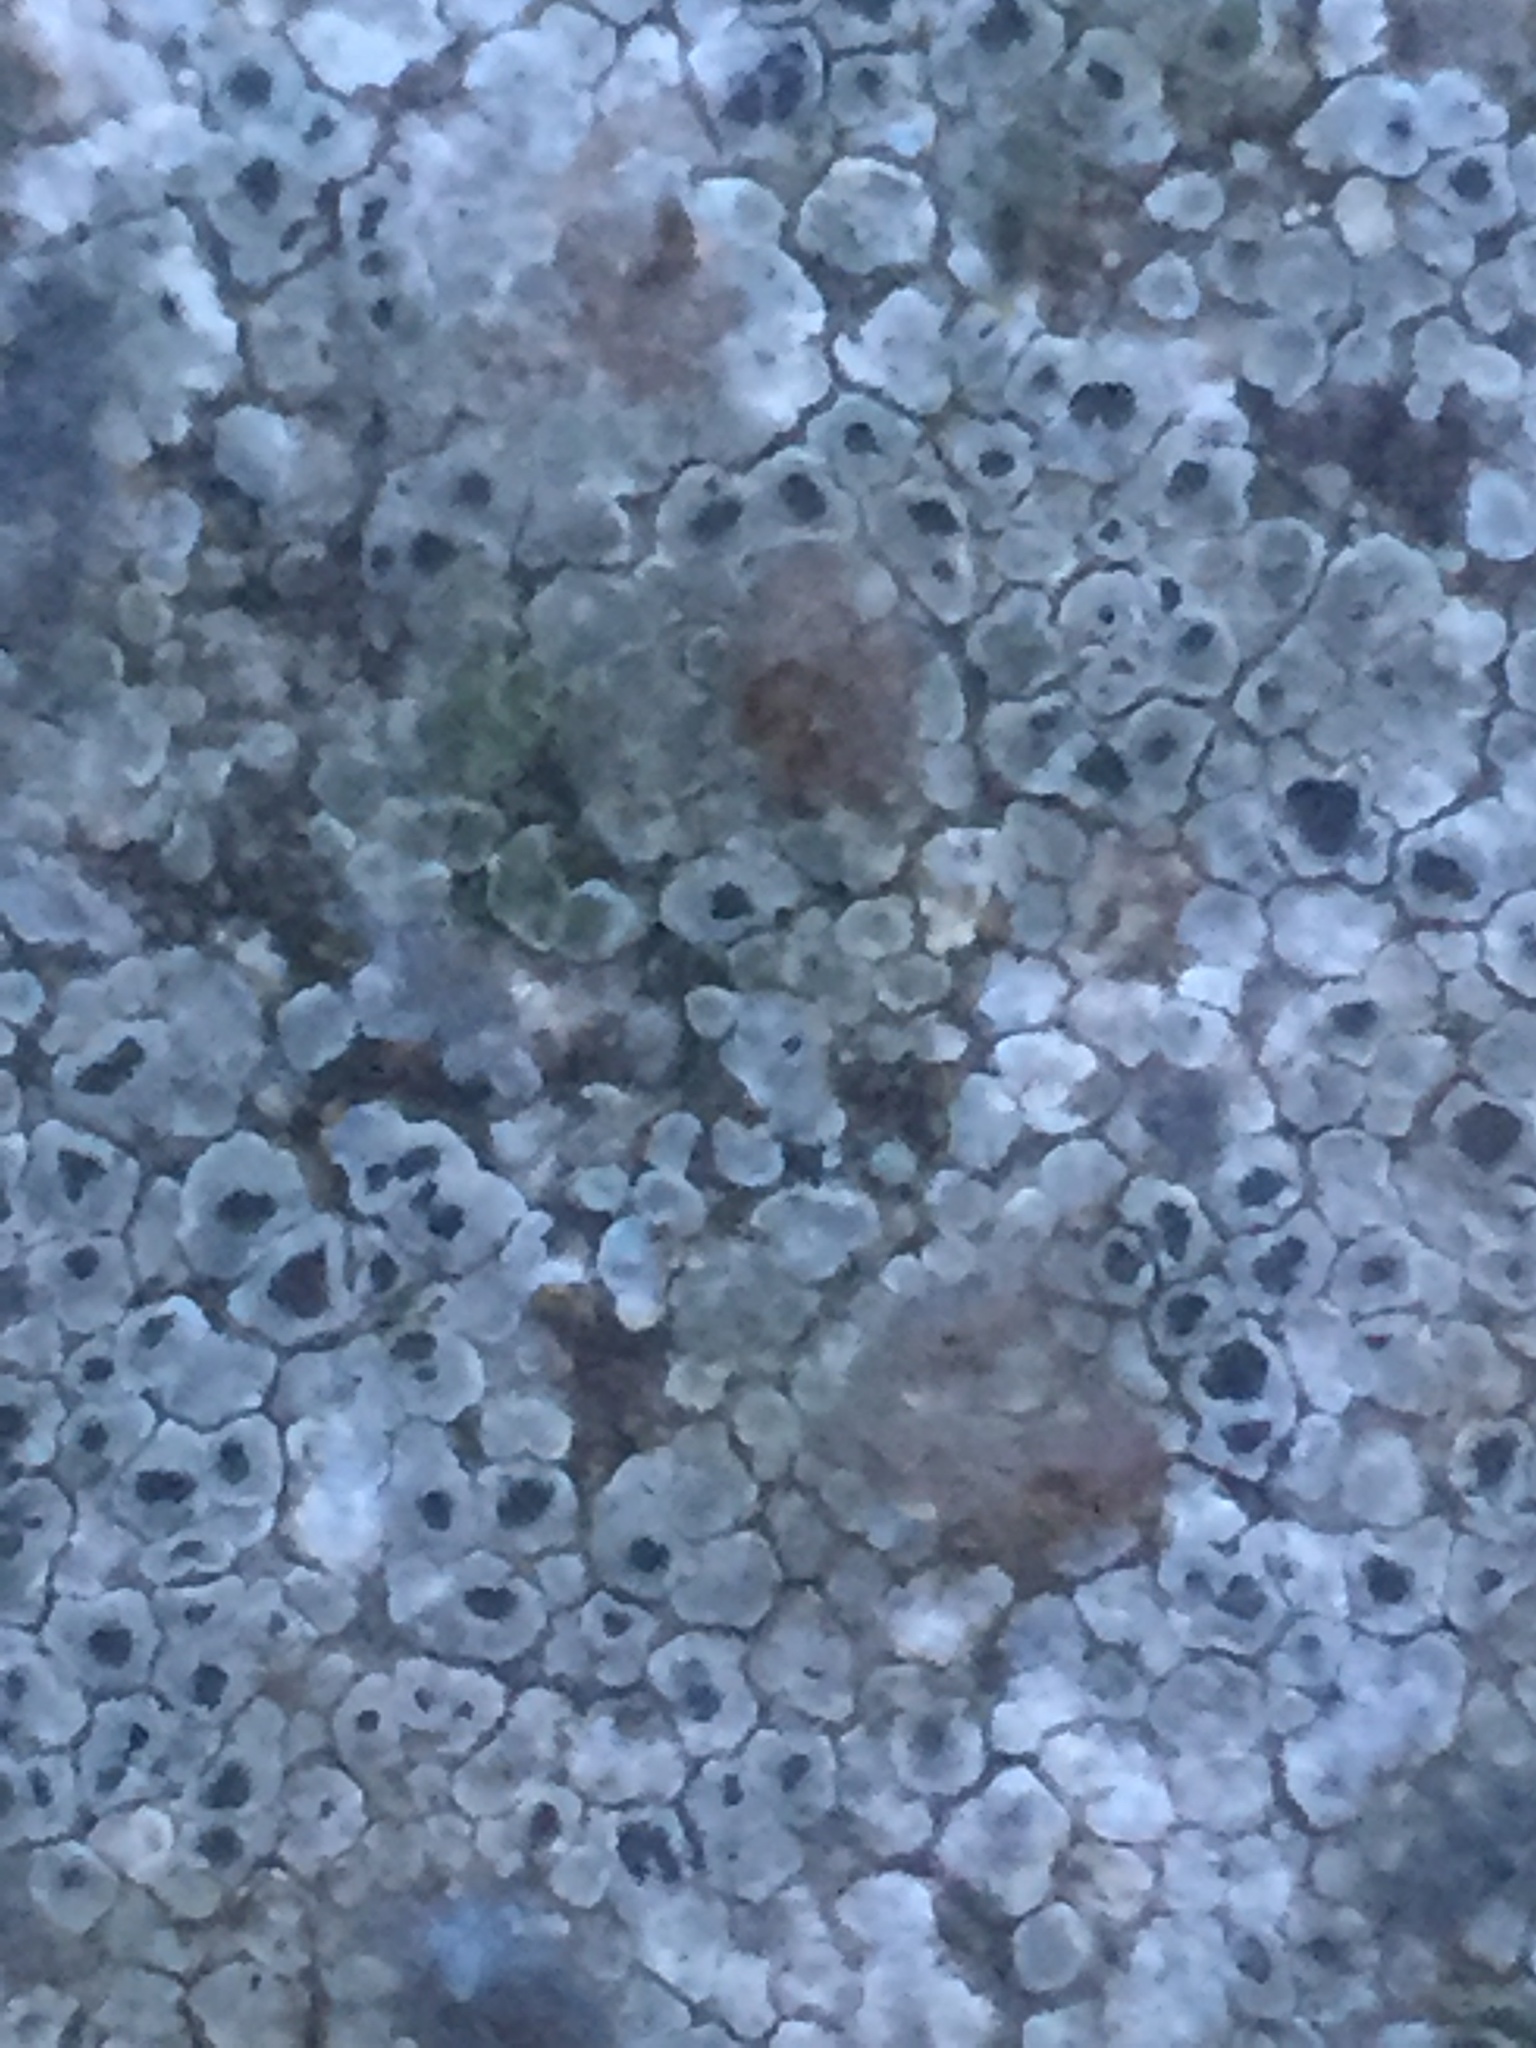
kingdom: Fungi
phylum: Ascomycota
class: Lecanoromycetes
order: Pertusariales
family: Megasporaceae
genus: Circinaria
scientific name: Circinaria contorta
